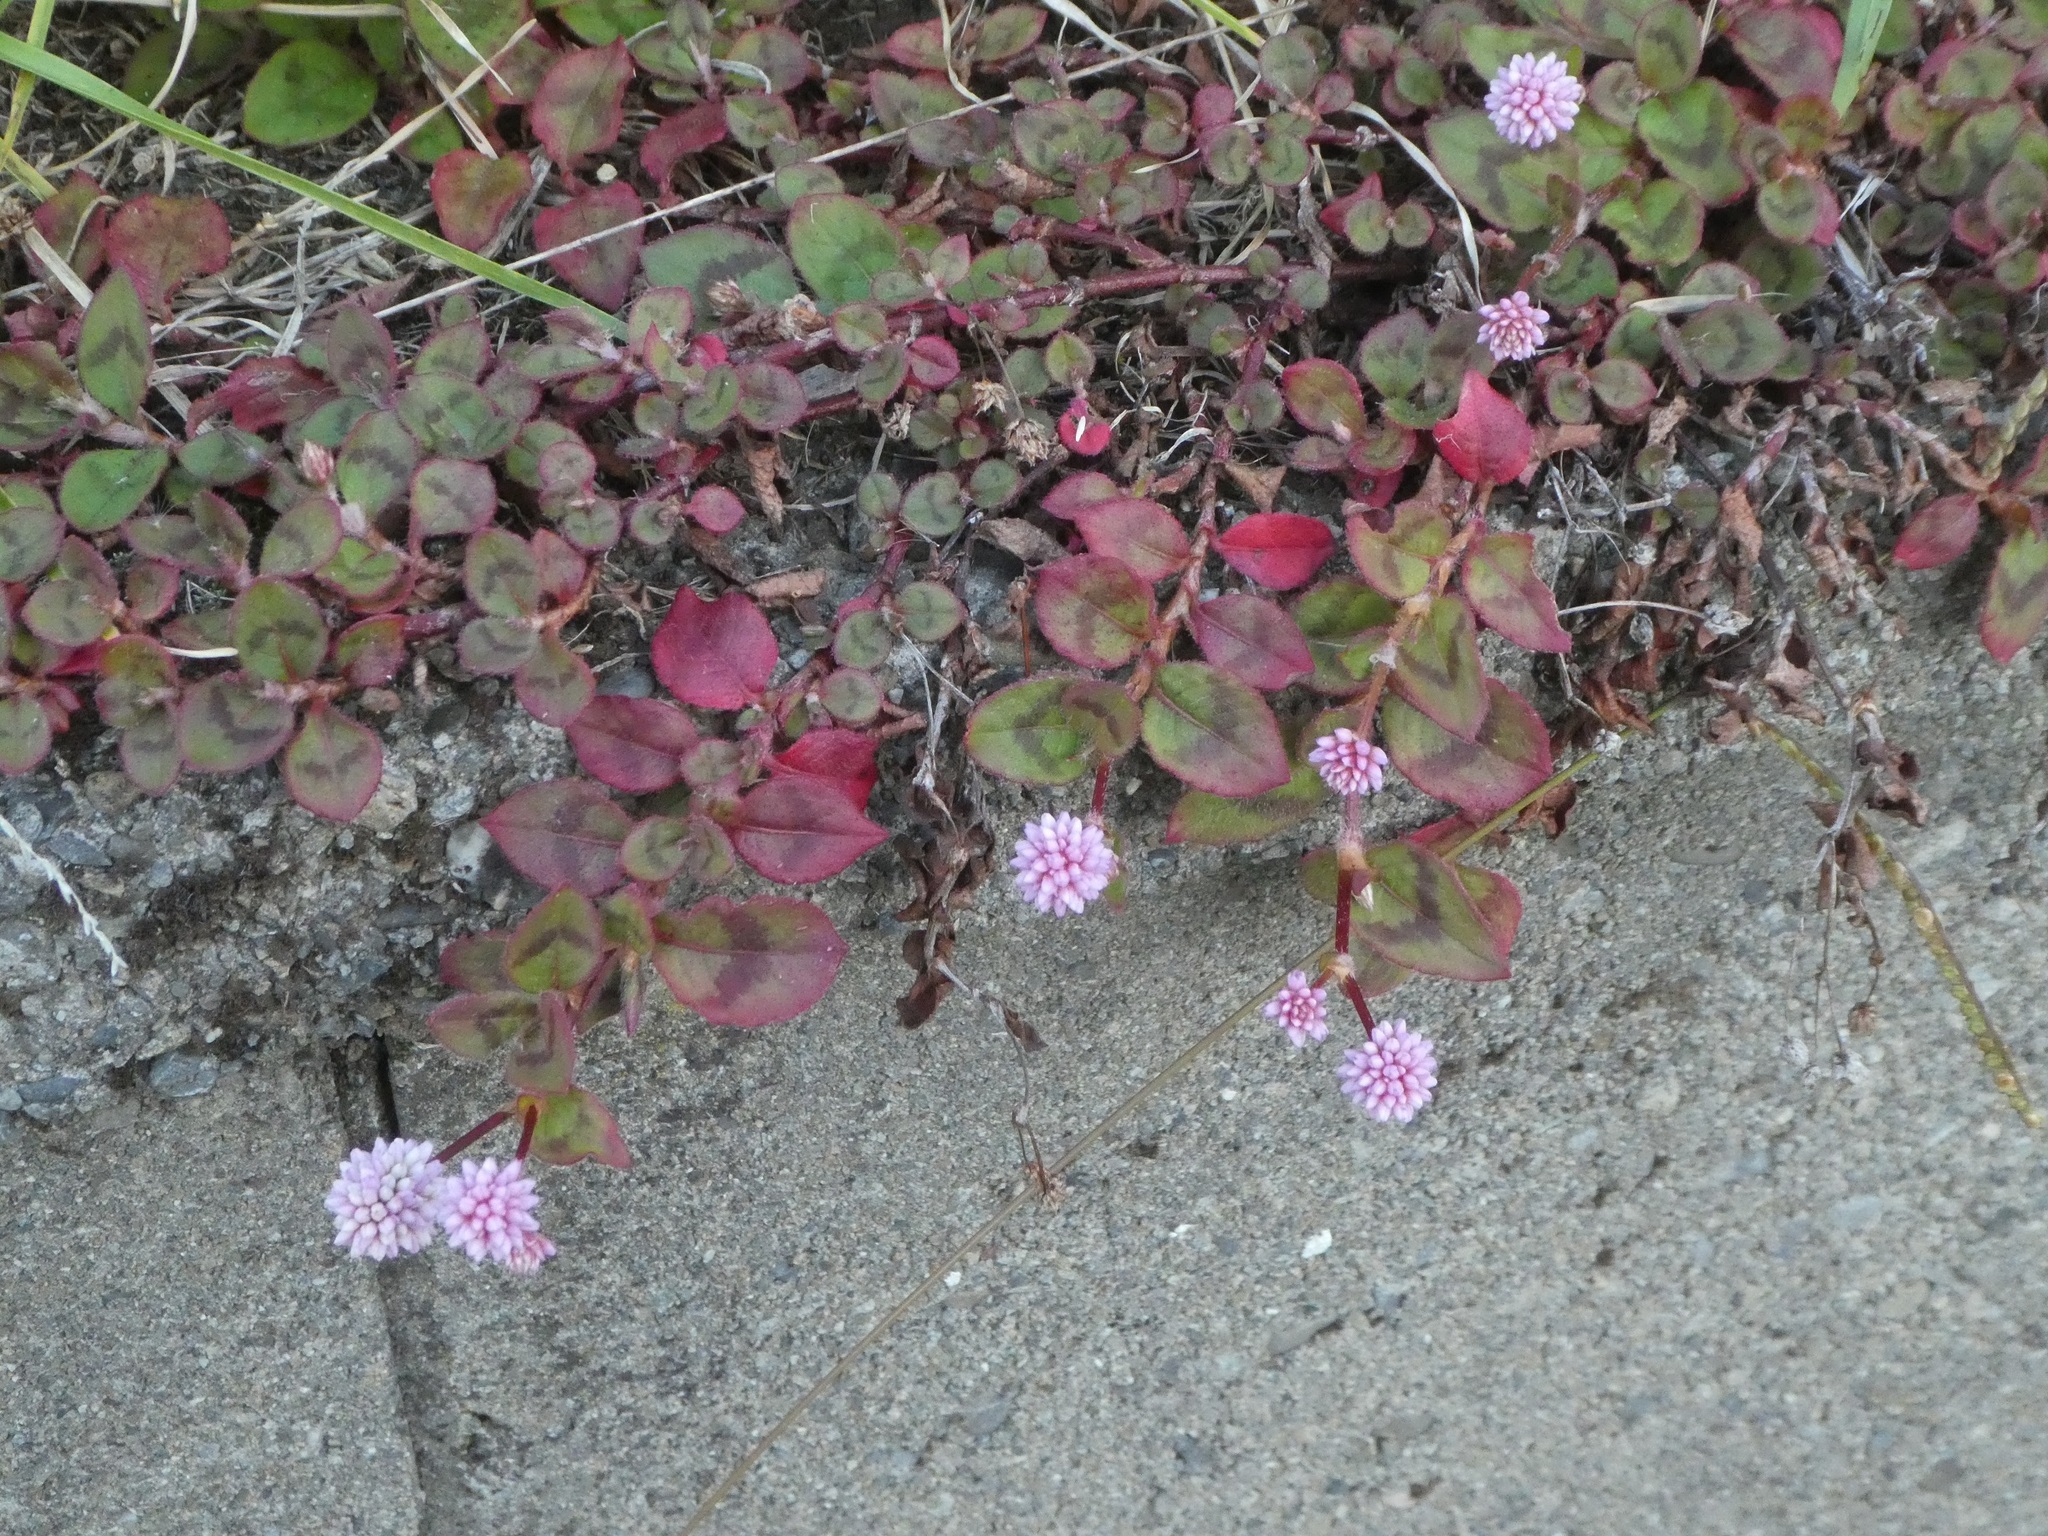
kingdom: Plantae
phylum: Tracheophyta
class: Magnoliopsida
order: Caryophyllales
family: Polygonaceae
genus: Persicaria
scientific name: Persicaria capitata
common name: Pinkhead smartweed
